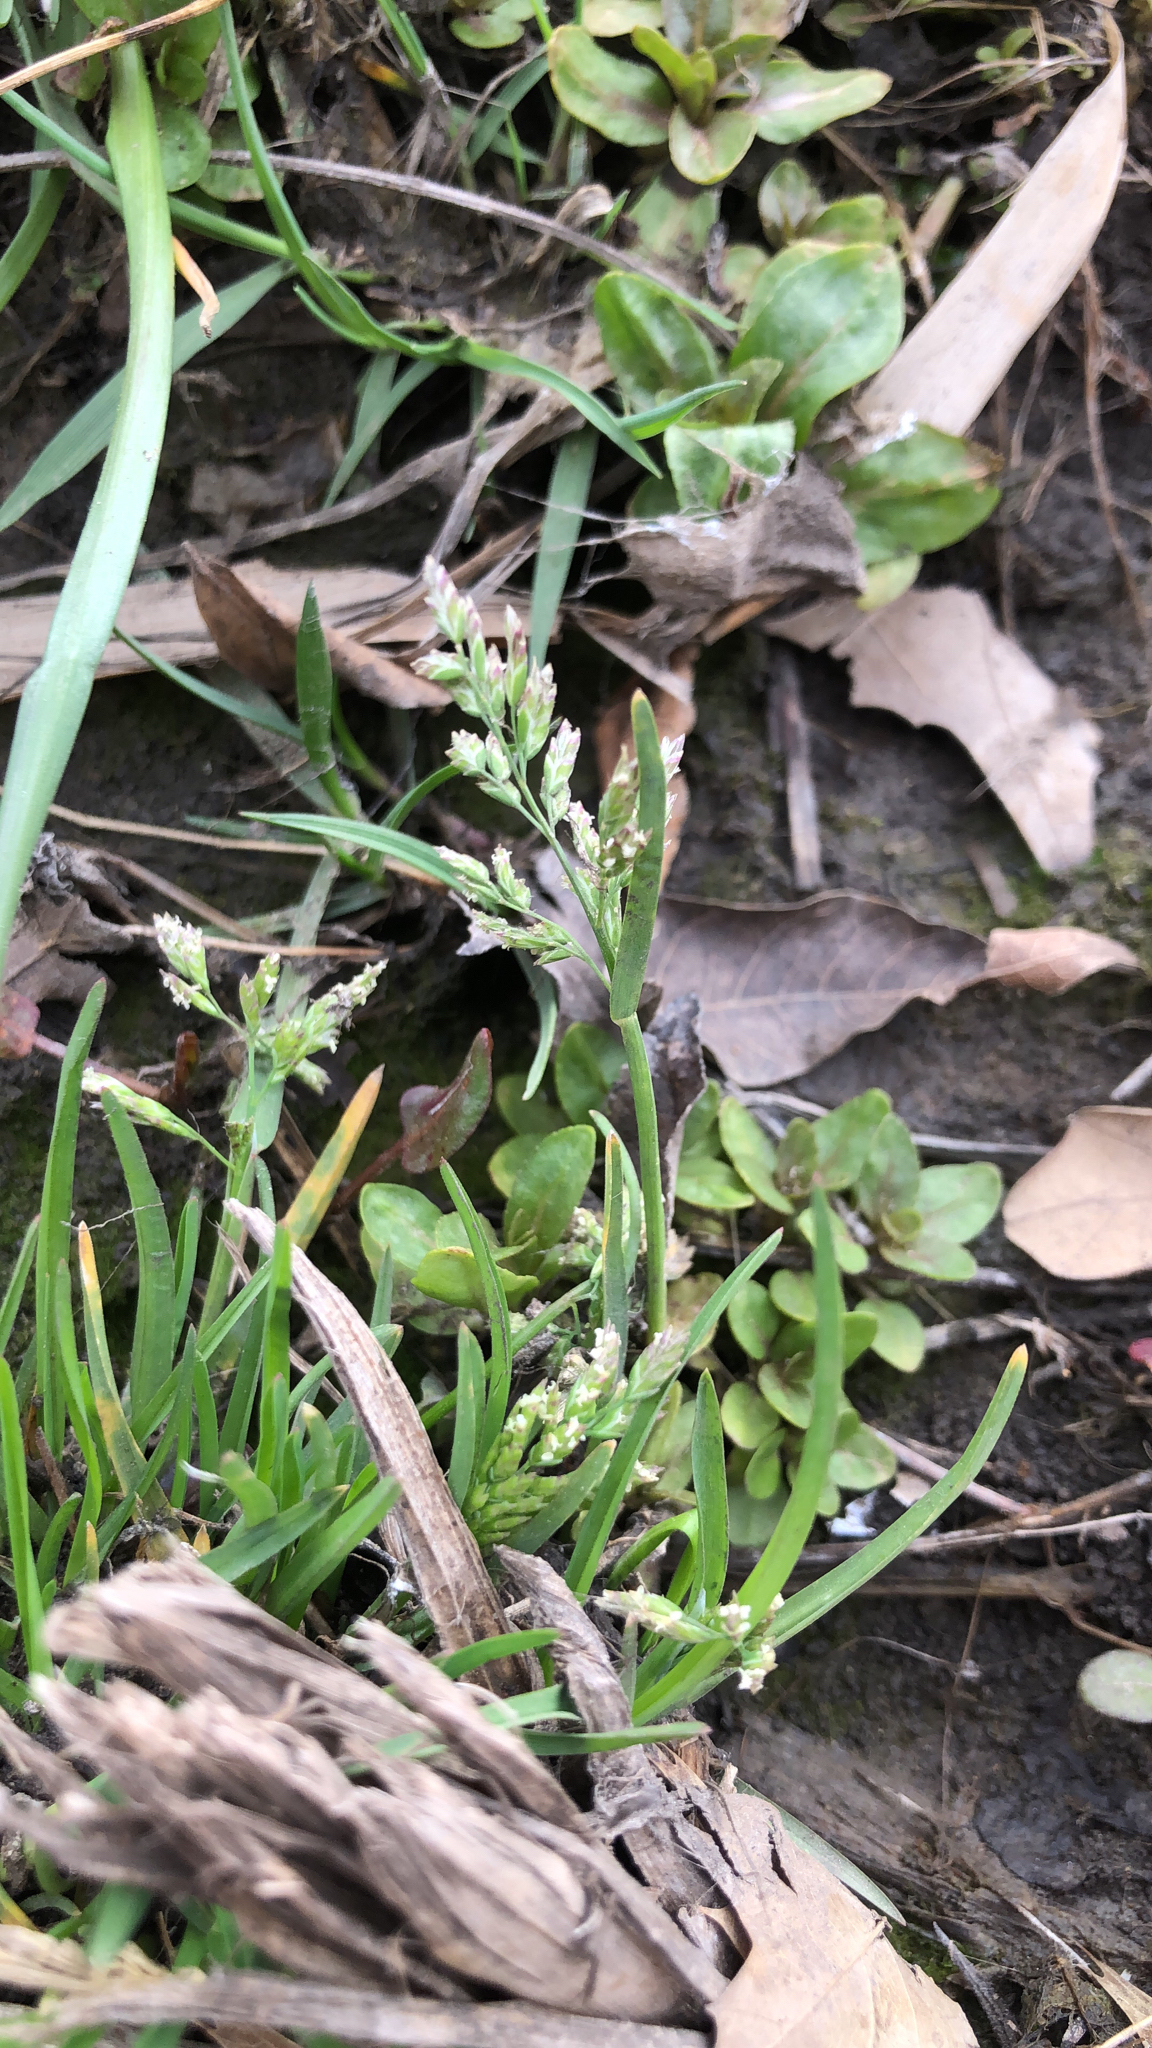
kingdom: Plantae
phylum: Tracheophyta
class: Liliopsida
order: Poales
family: Poaceae
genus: Poa
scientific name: Poa annua
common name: Annual bluegrass
